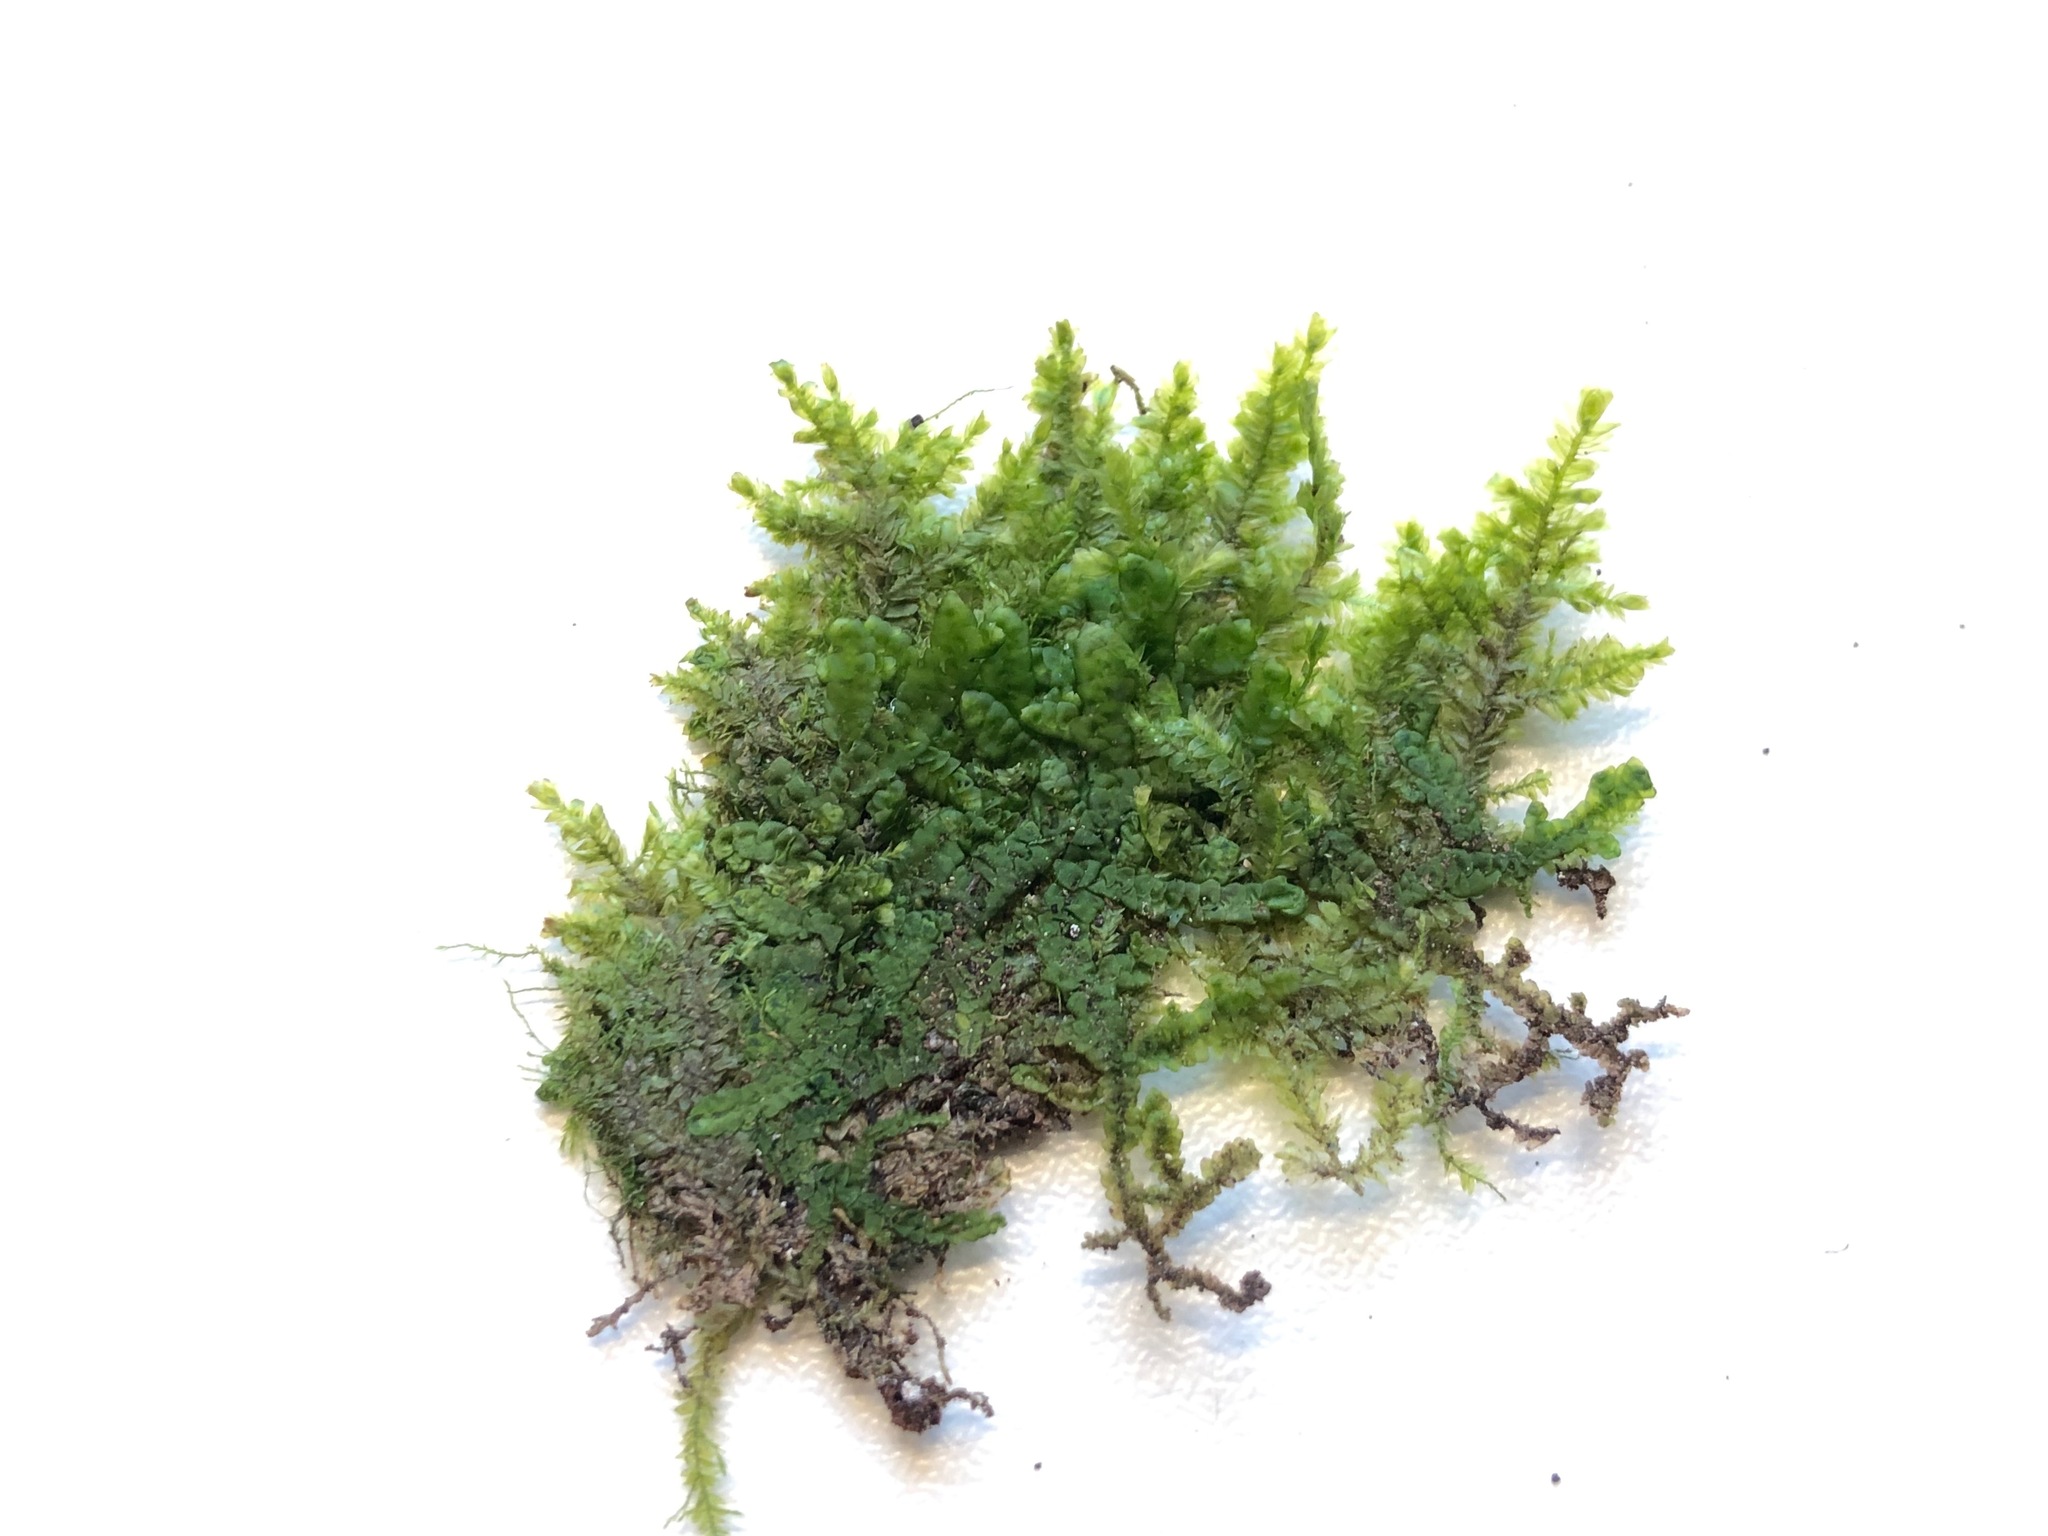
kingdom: Plantae
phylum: Bryophyta
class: Bryopsida
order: Hypnales
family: Neckeraceae
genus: Alleniella
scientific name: Alleniella complanata
